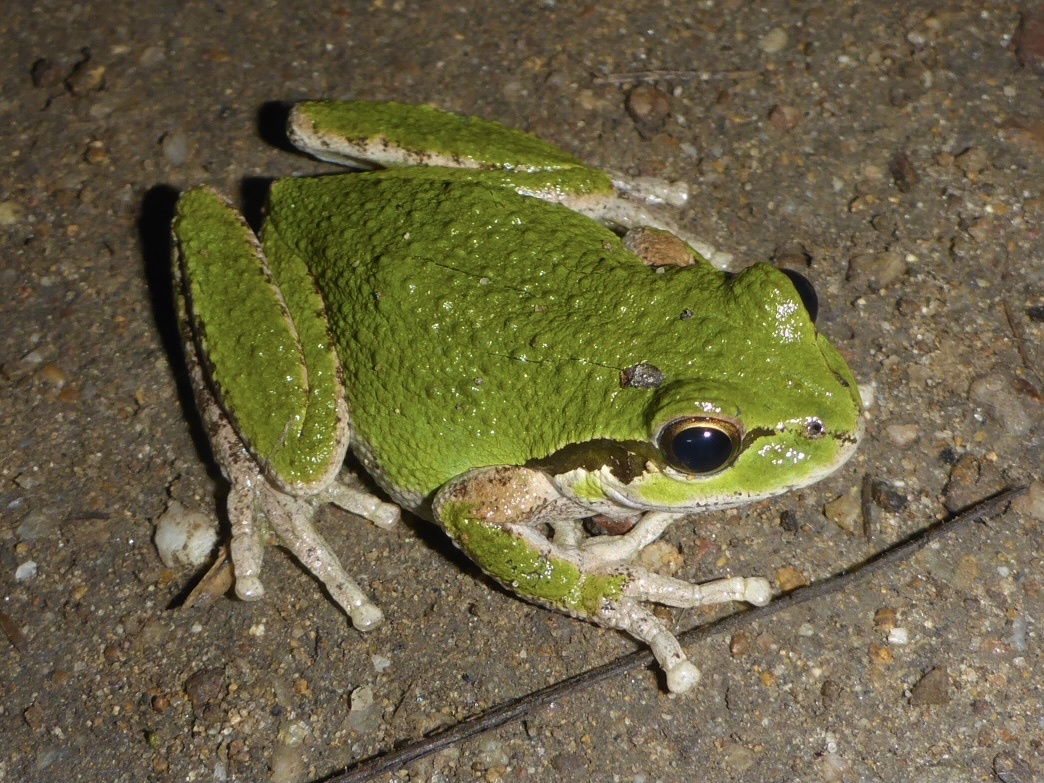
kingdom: Animalia
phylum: Chordata
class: Amphibia
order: Anura
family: Hylidae
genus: Pseudacris
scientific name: Pseudacris regilla
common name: Pacific chorus frog
